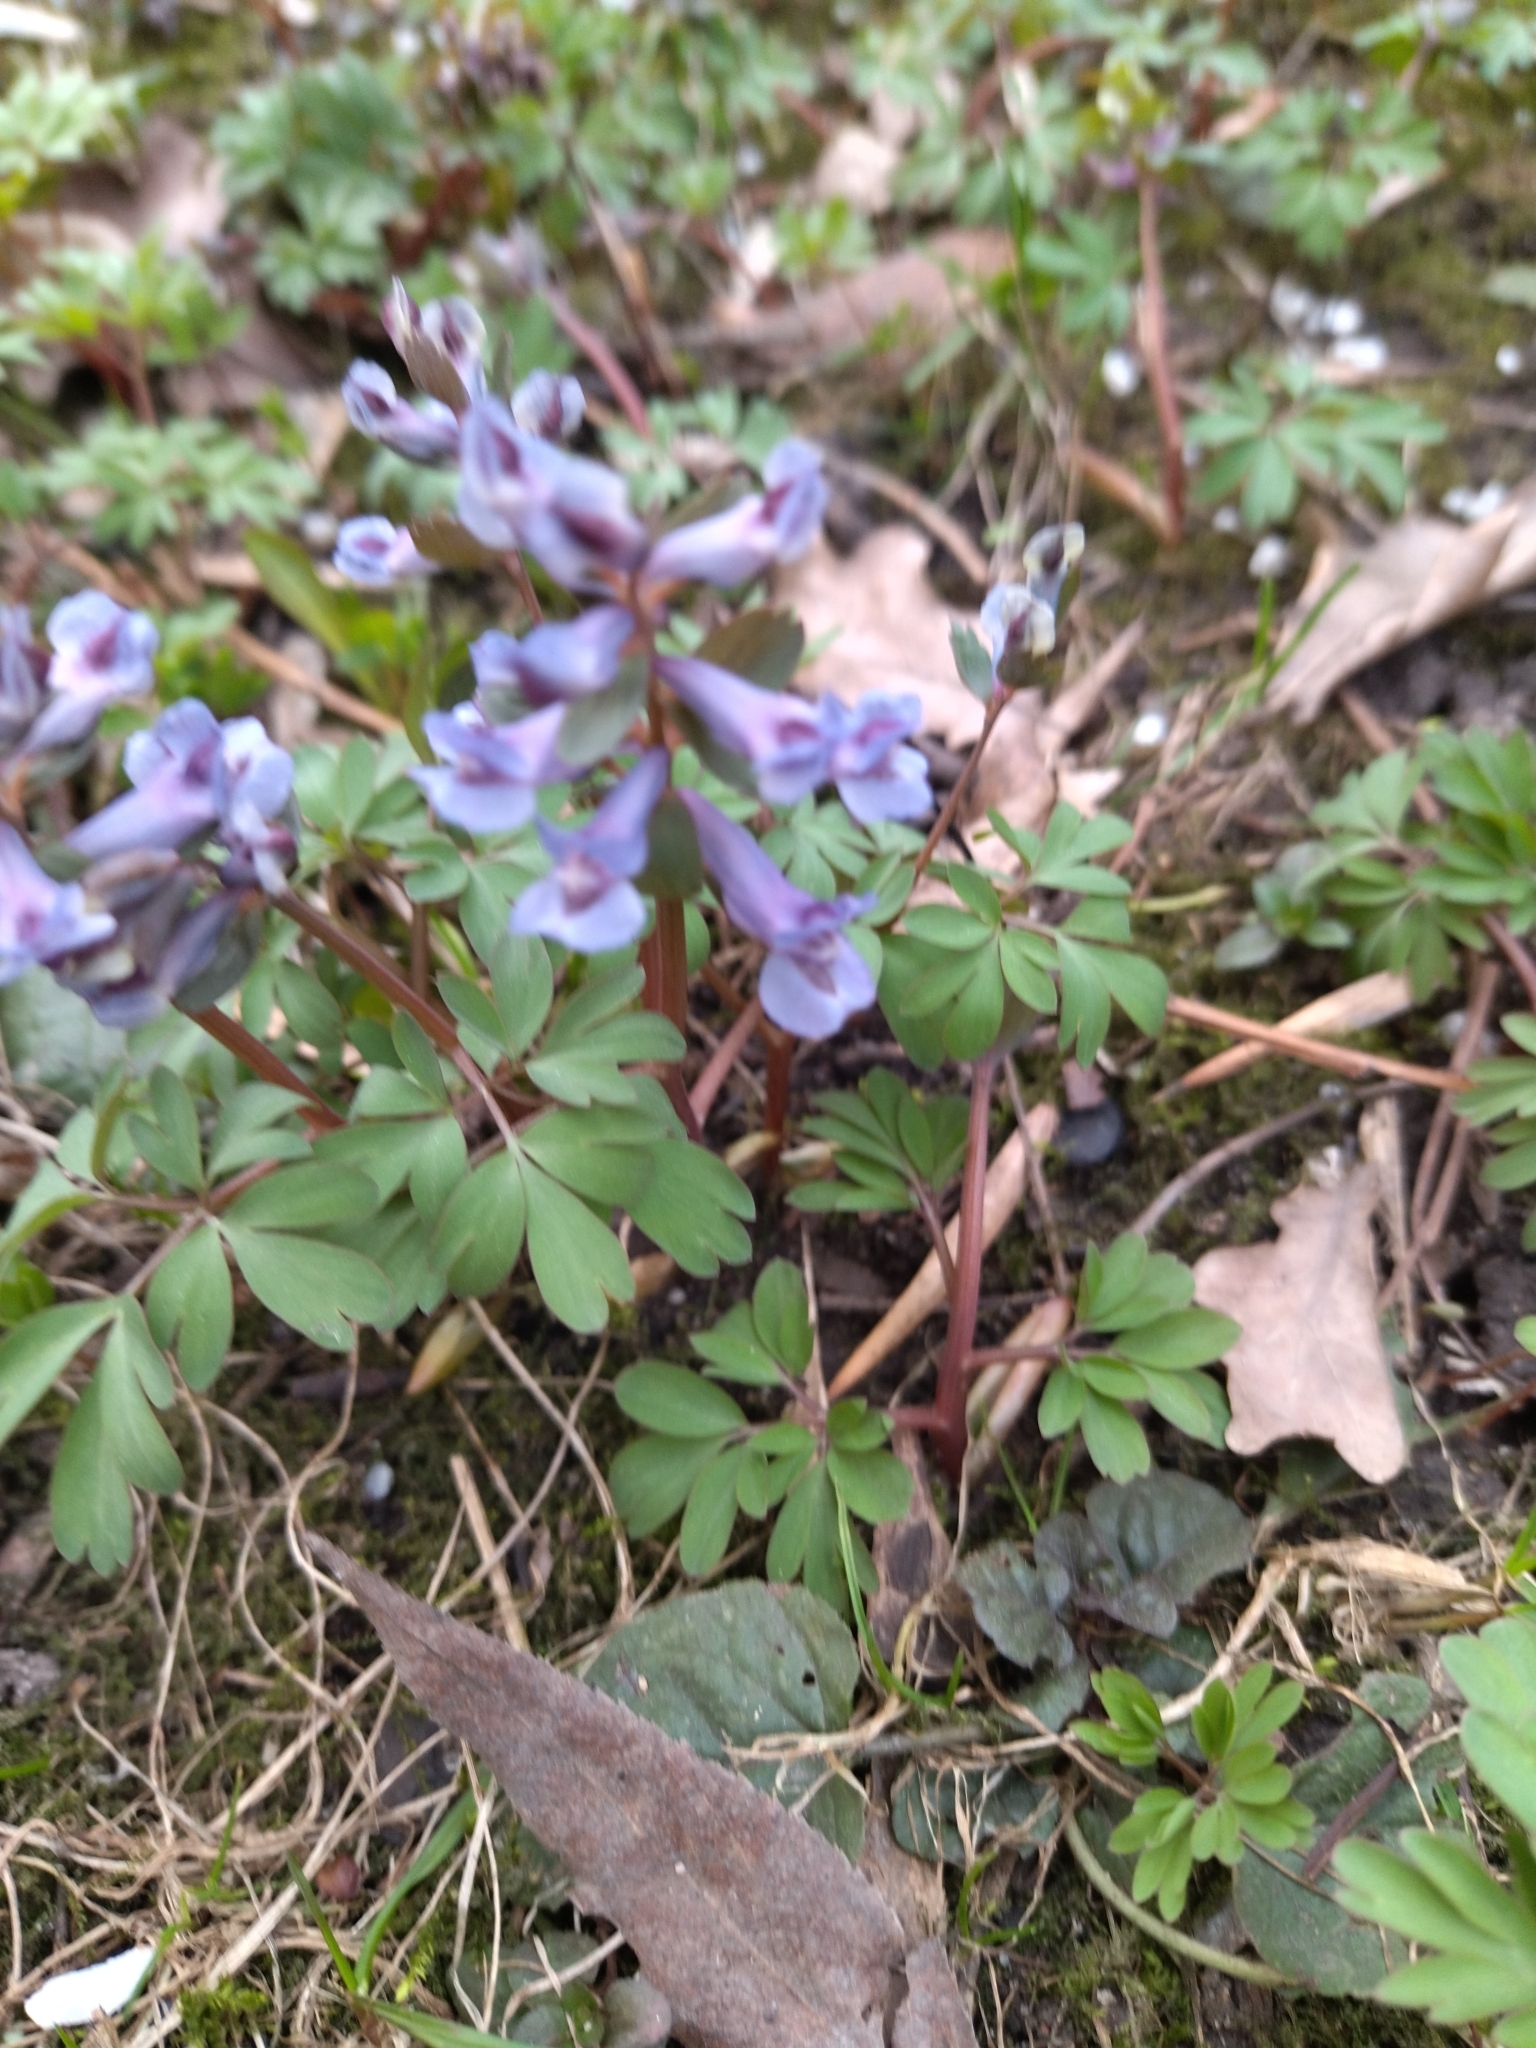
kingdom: Plantae
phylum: Tracheophyta
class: Magnoliopsida
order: Ranunculales
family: Papaveraceae
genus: Corydalis
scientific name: Corydalis solida
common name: Bird-in-a-bush
